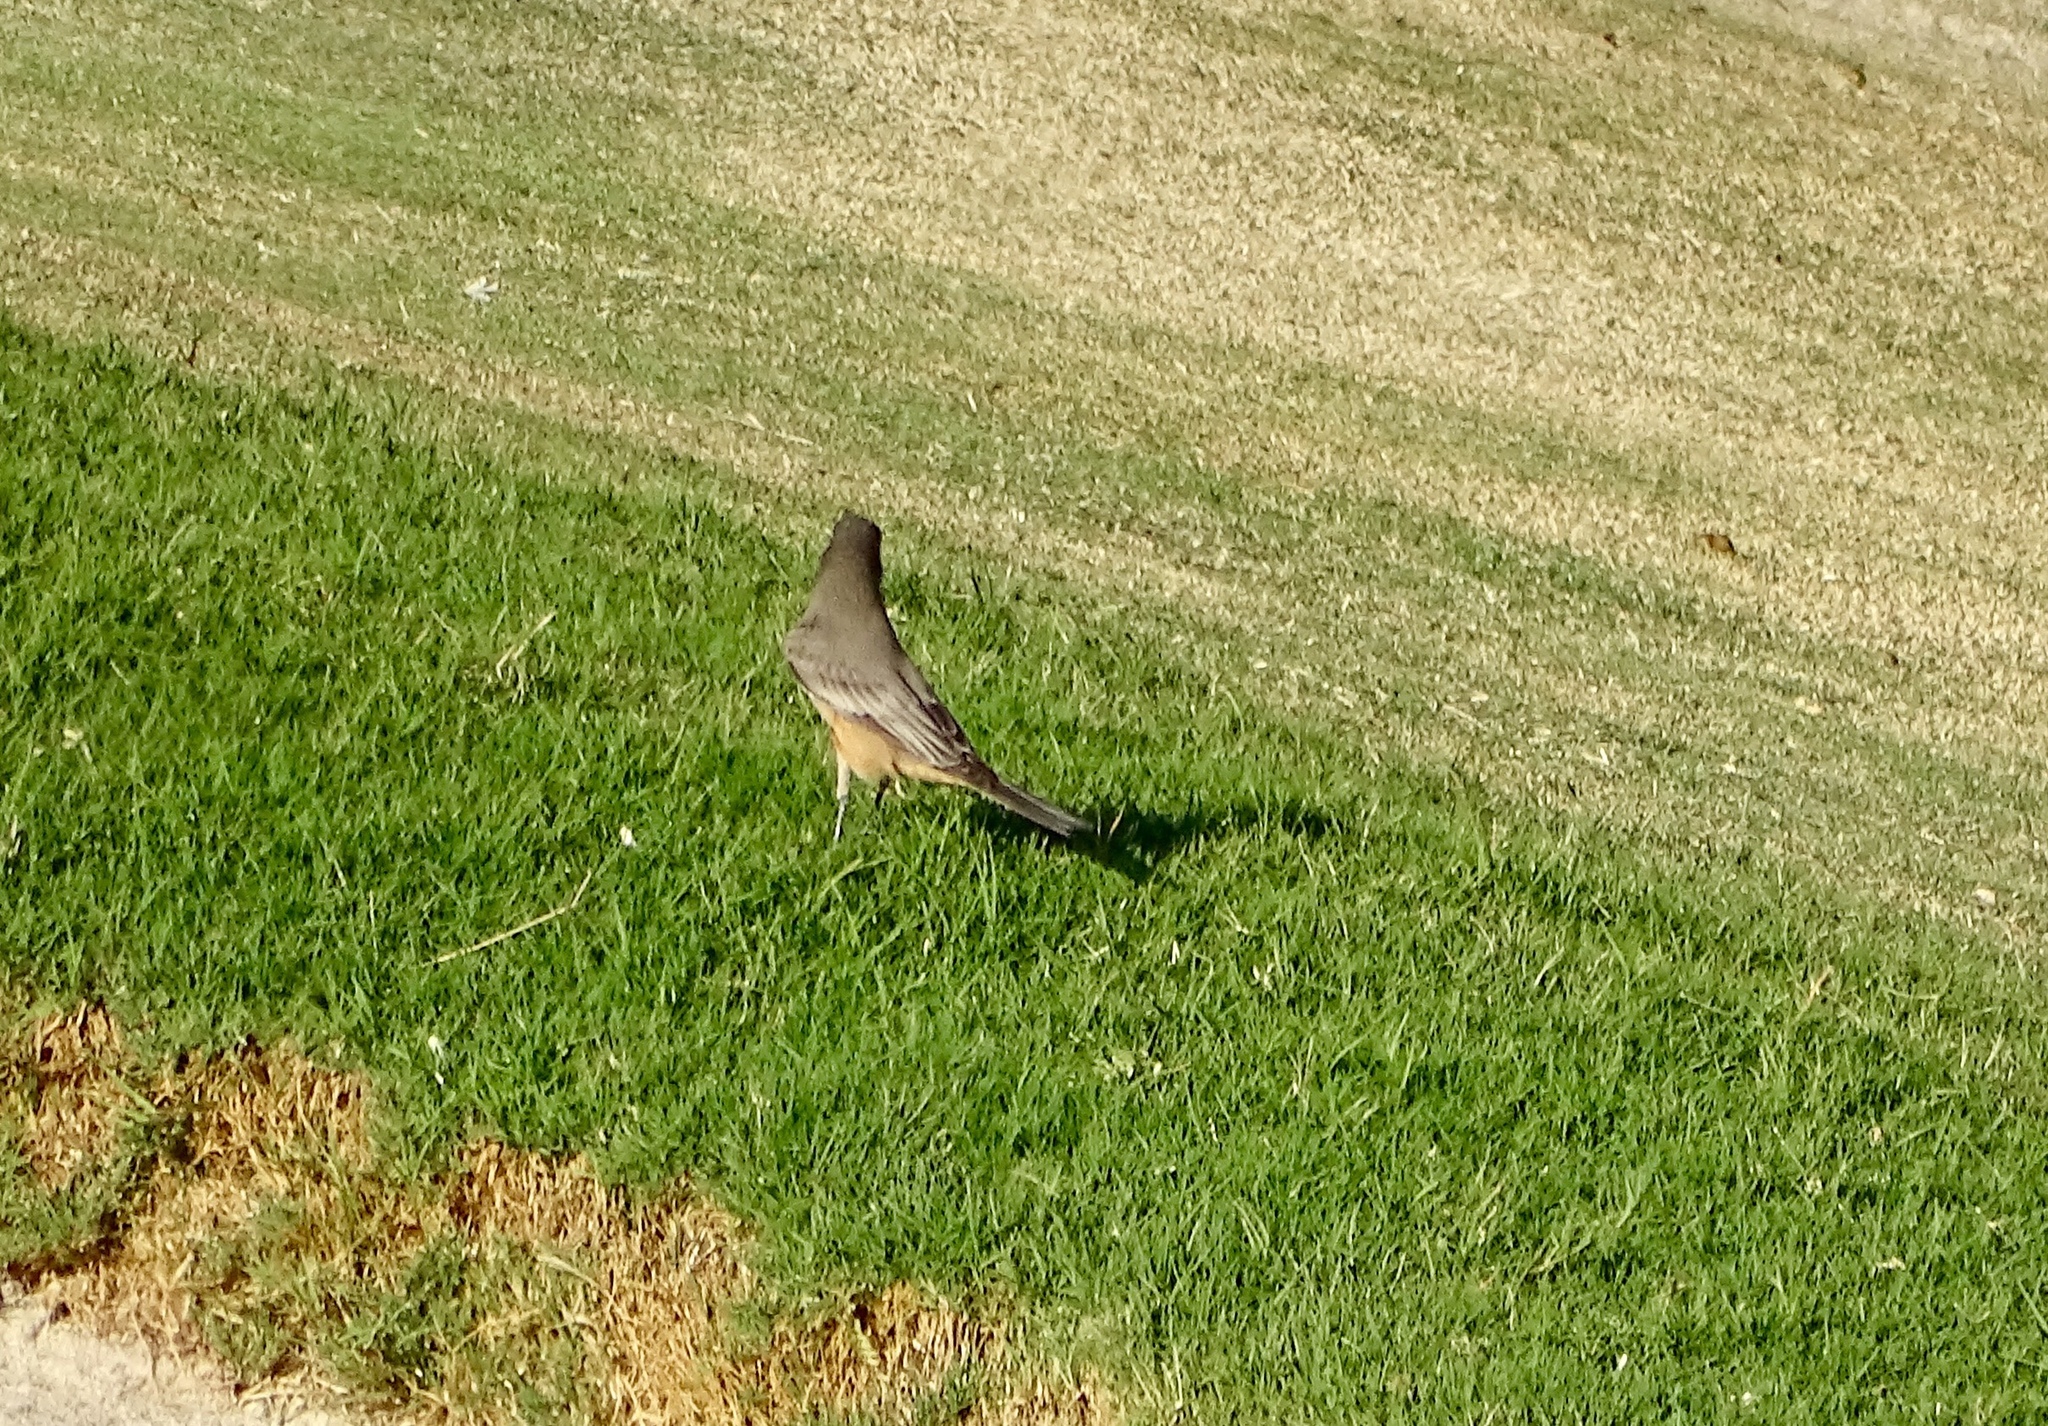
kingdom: Animalia
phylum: Chordata
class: Aves
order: Passeriformes
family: Tyrannidae
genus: Sayornis
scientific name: Sayornis saya
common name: Say's phoebe
